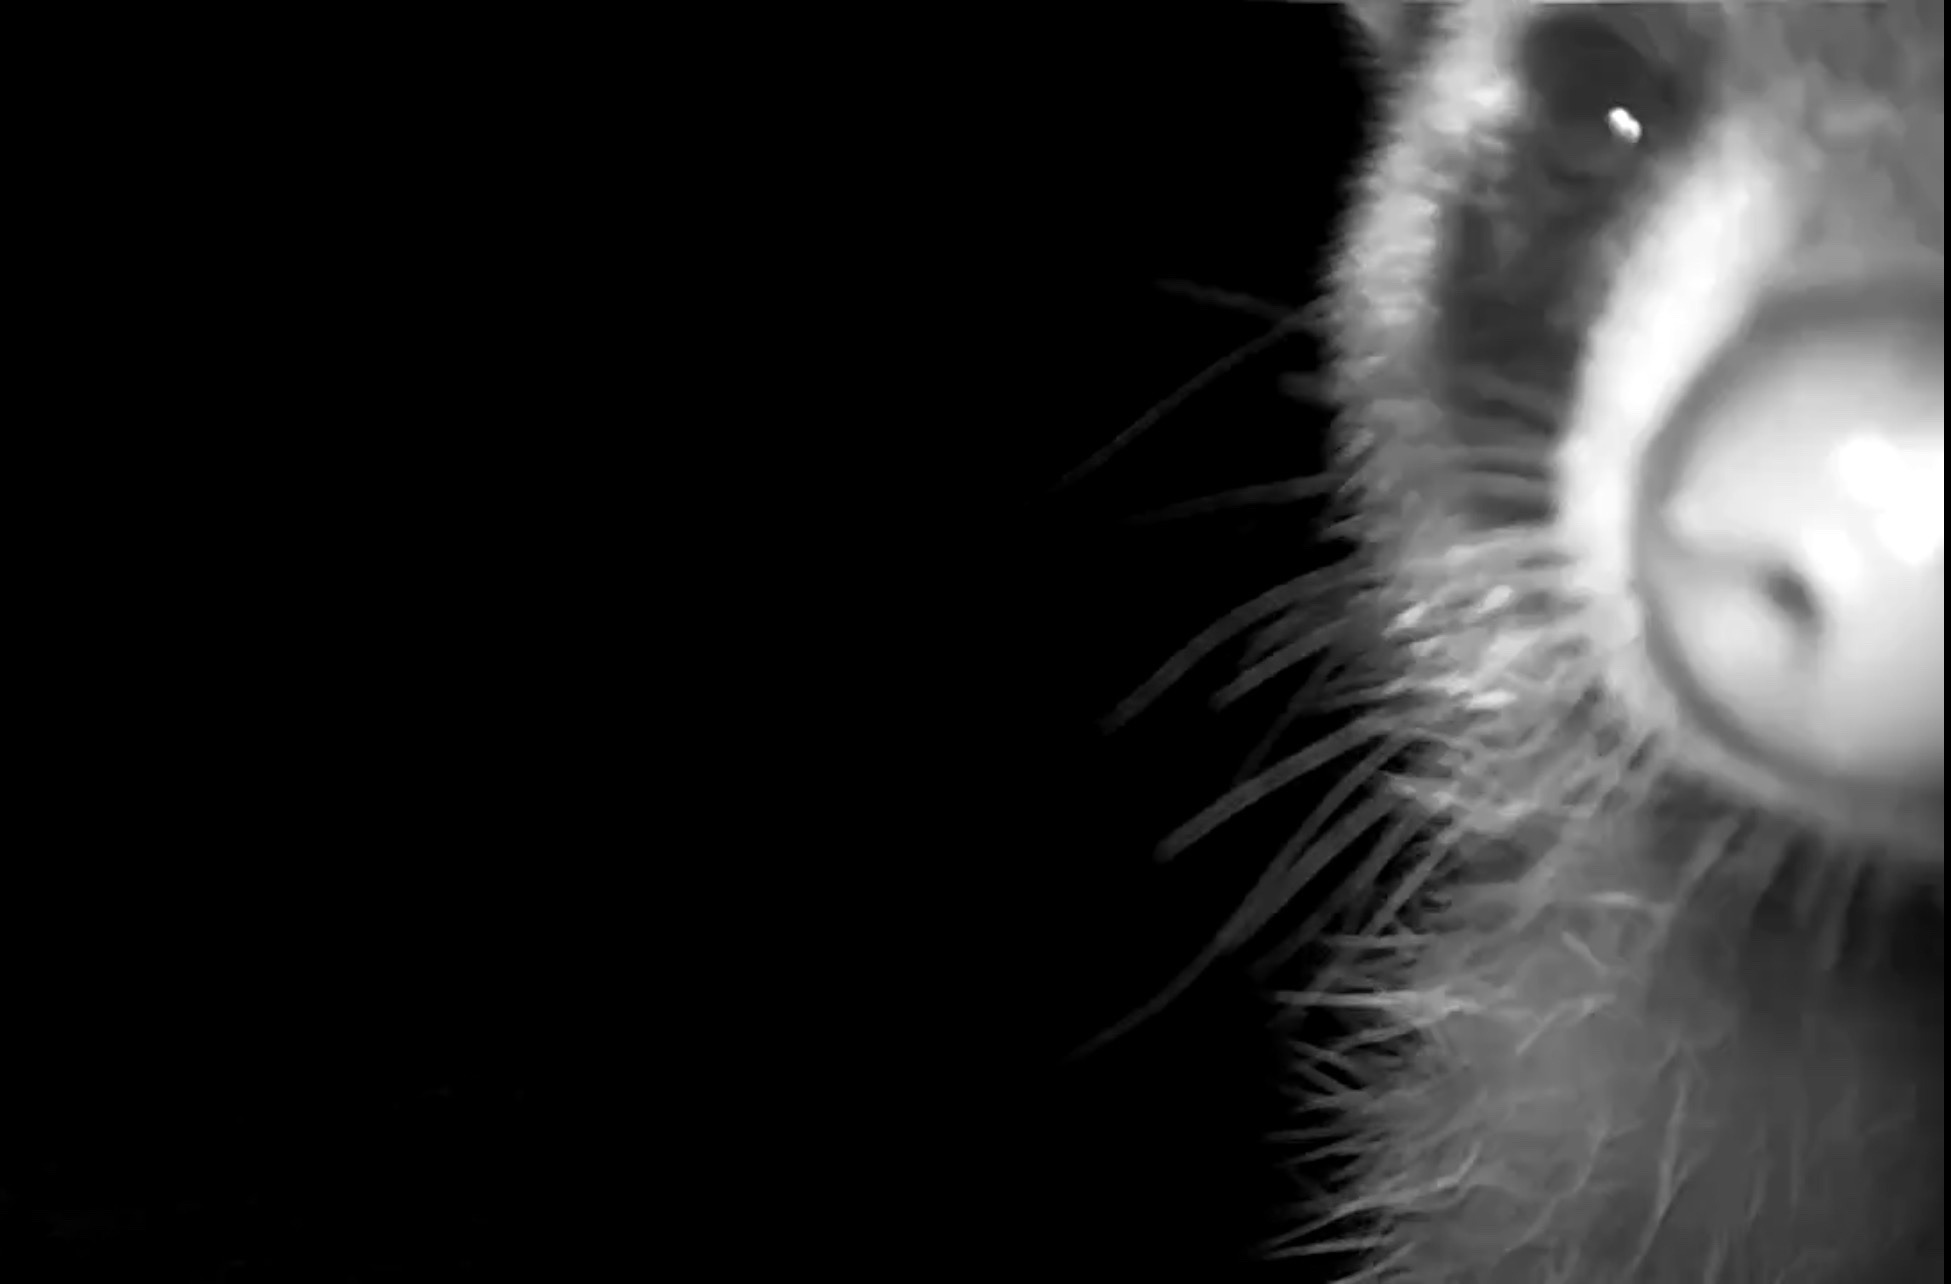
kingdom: Animalia
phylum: Chordata
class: Mammalia
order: Carnivora
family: Procyonidae
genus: Procyon
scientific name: Procyon lotor
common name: Raccoon
